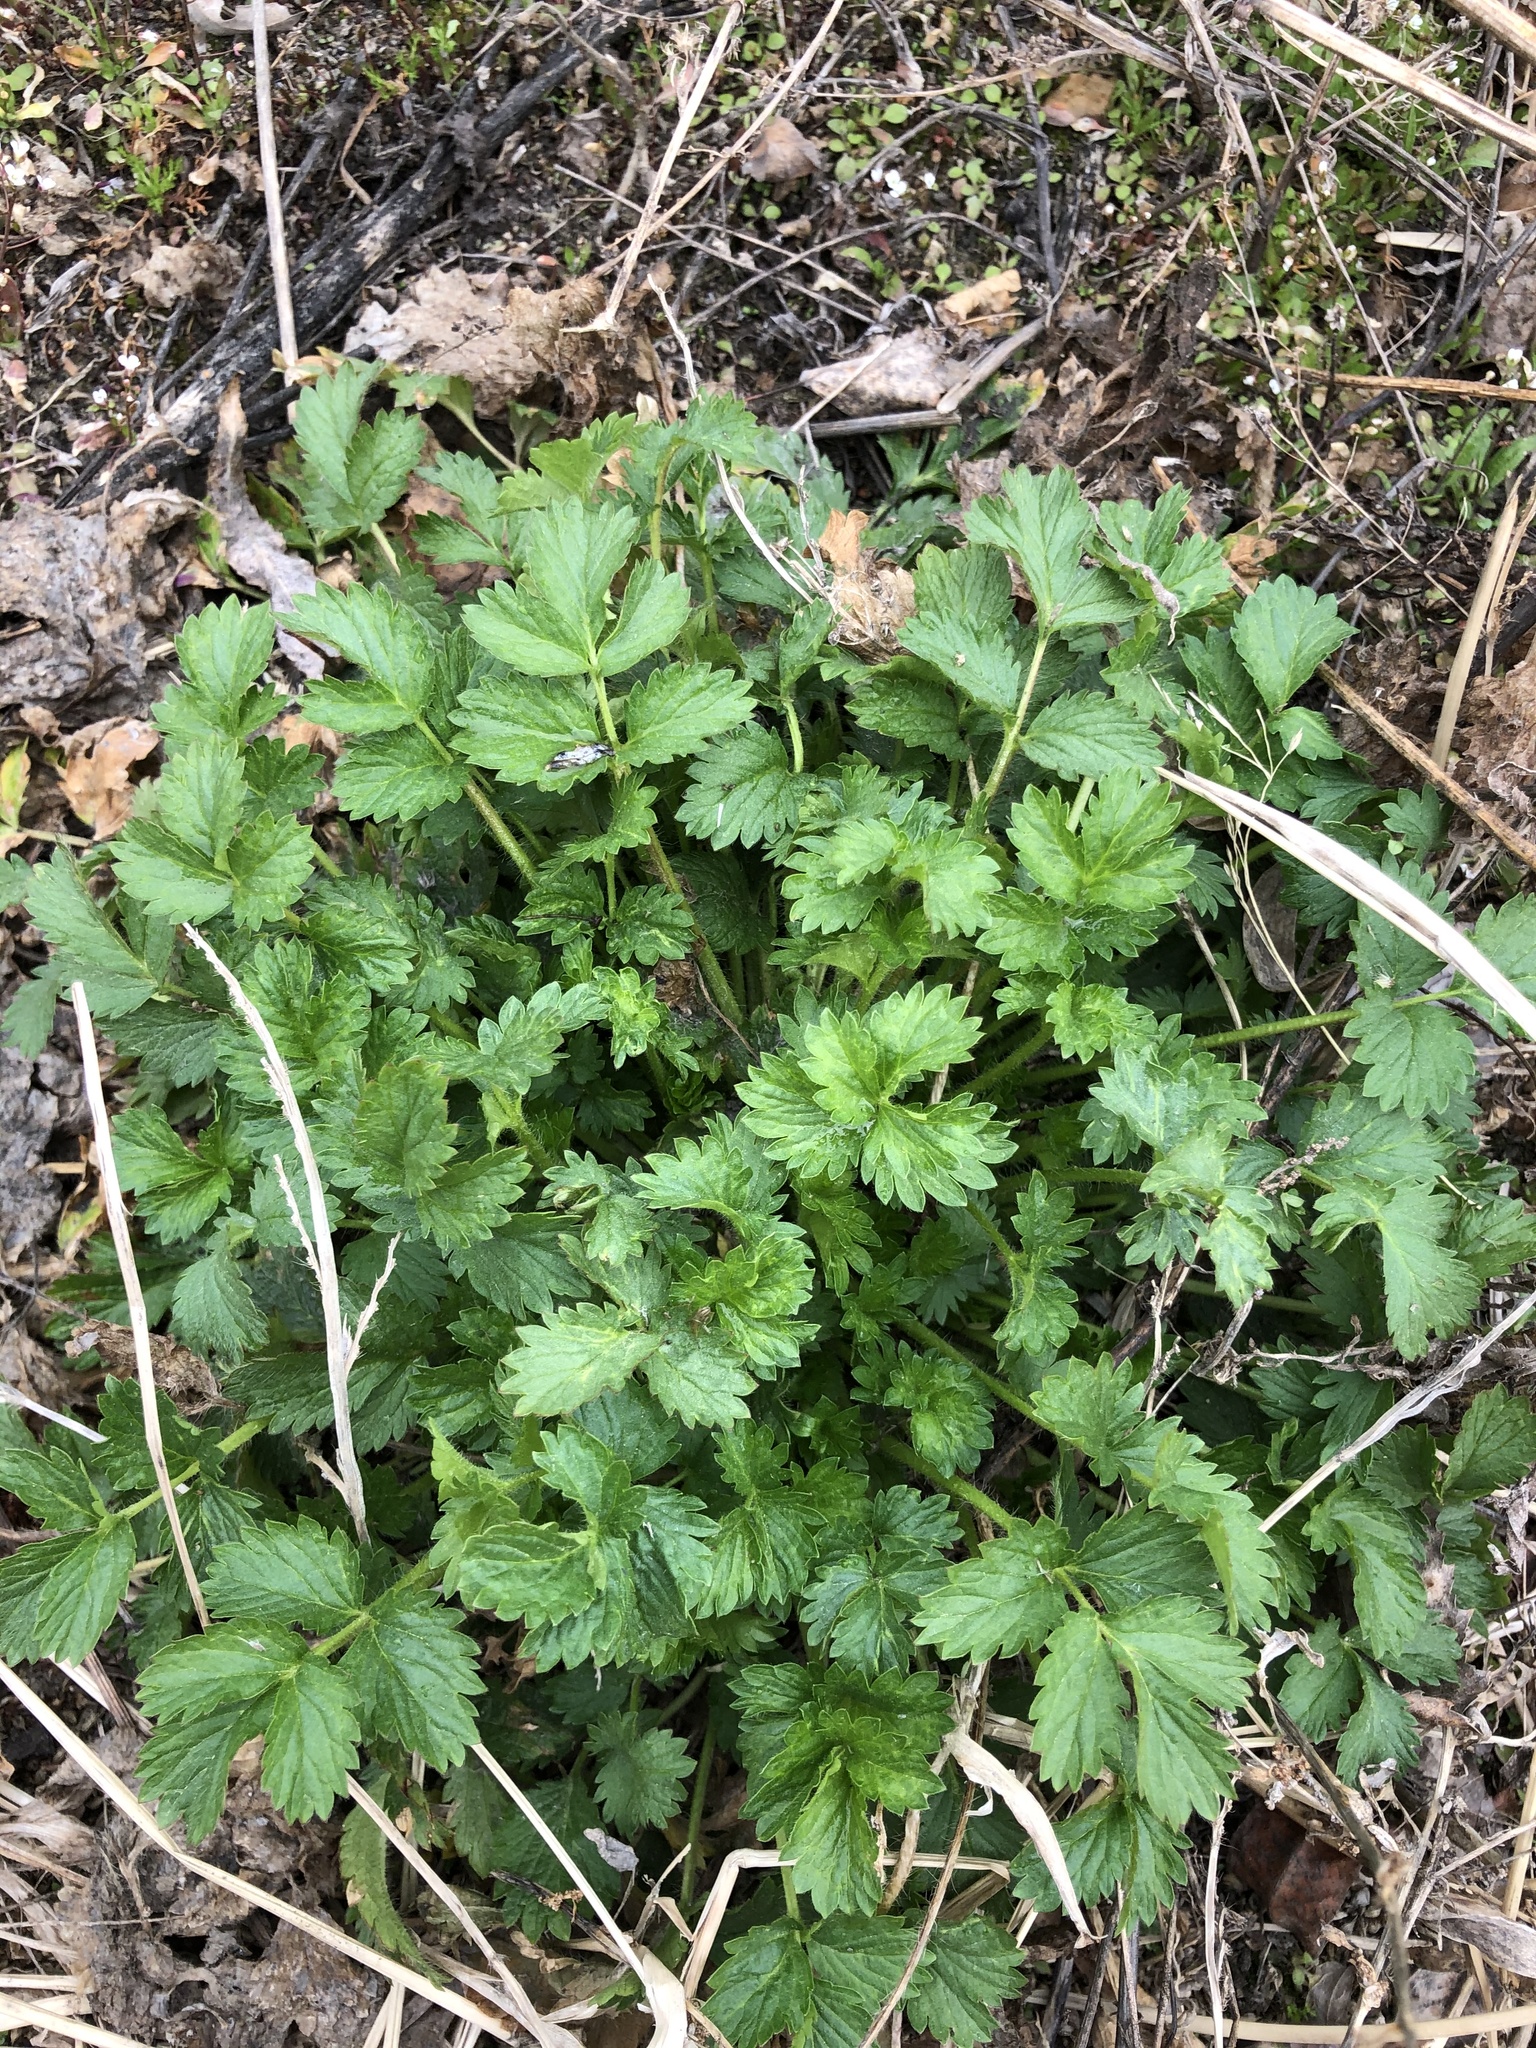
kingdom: Plantae
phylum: Tracheophyta
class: Magnoliopsida
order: Rosales
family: Rosaceae
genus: Potentilla
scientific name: Potentilla supina
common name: Prostrate cinquefoil
